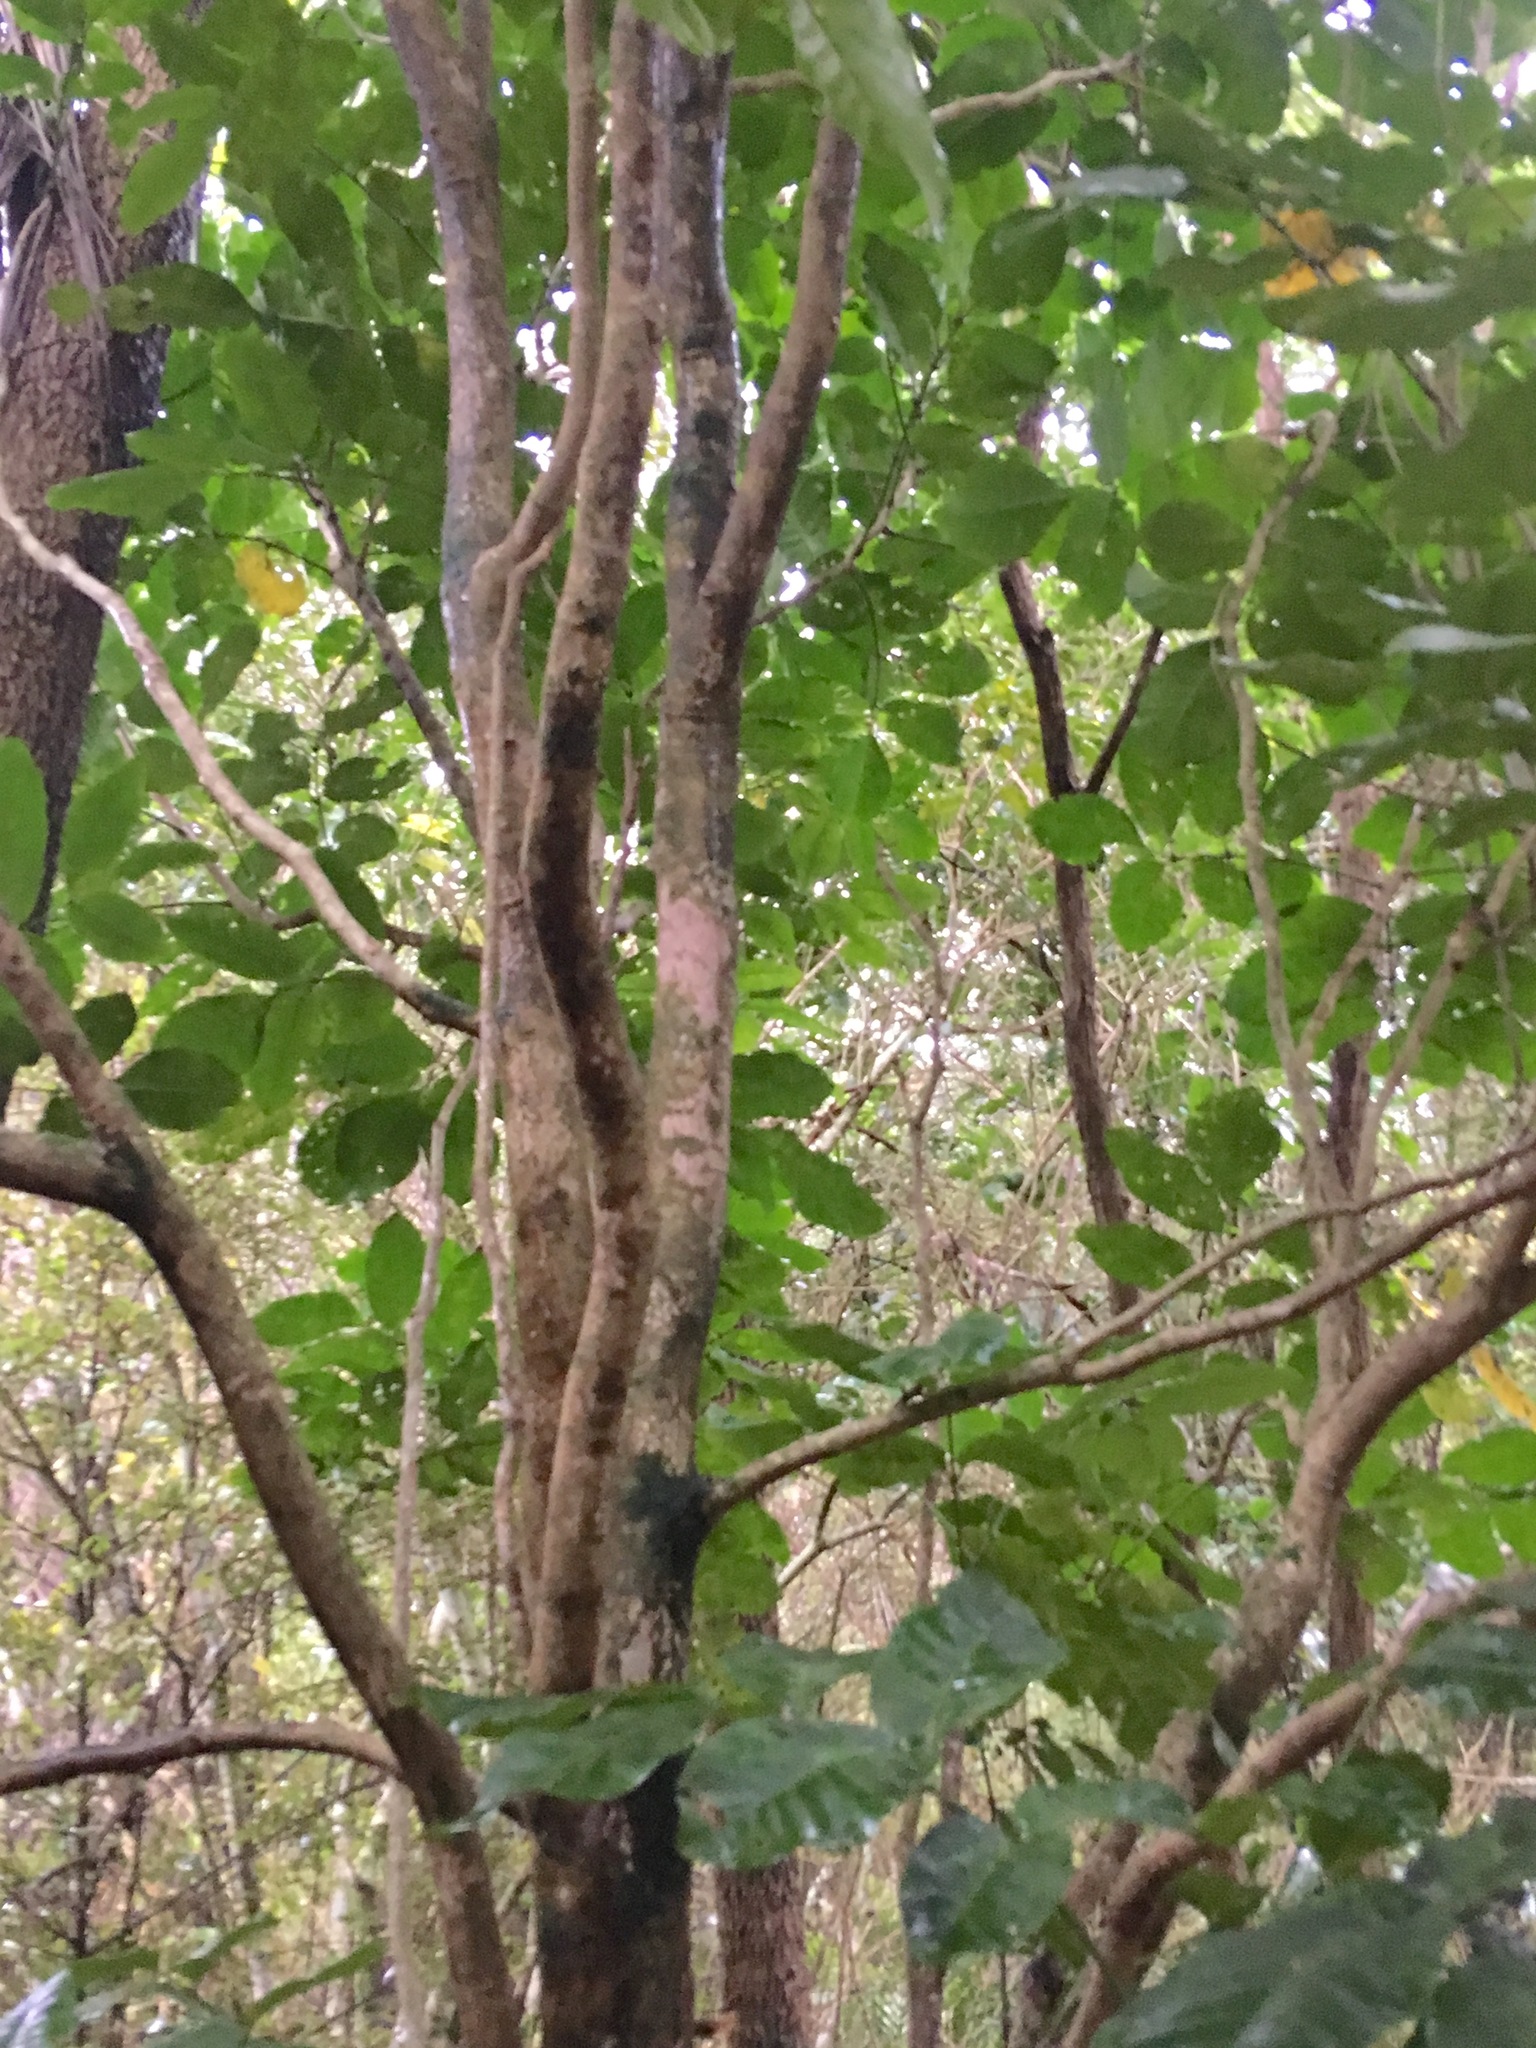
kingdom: Plantae
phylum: Tracheophyta
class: Magnoliopsida
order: Sapindales
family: Meliaceae
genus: Didymocheton
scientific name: Didymocheton spectabilis
